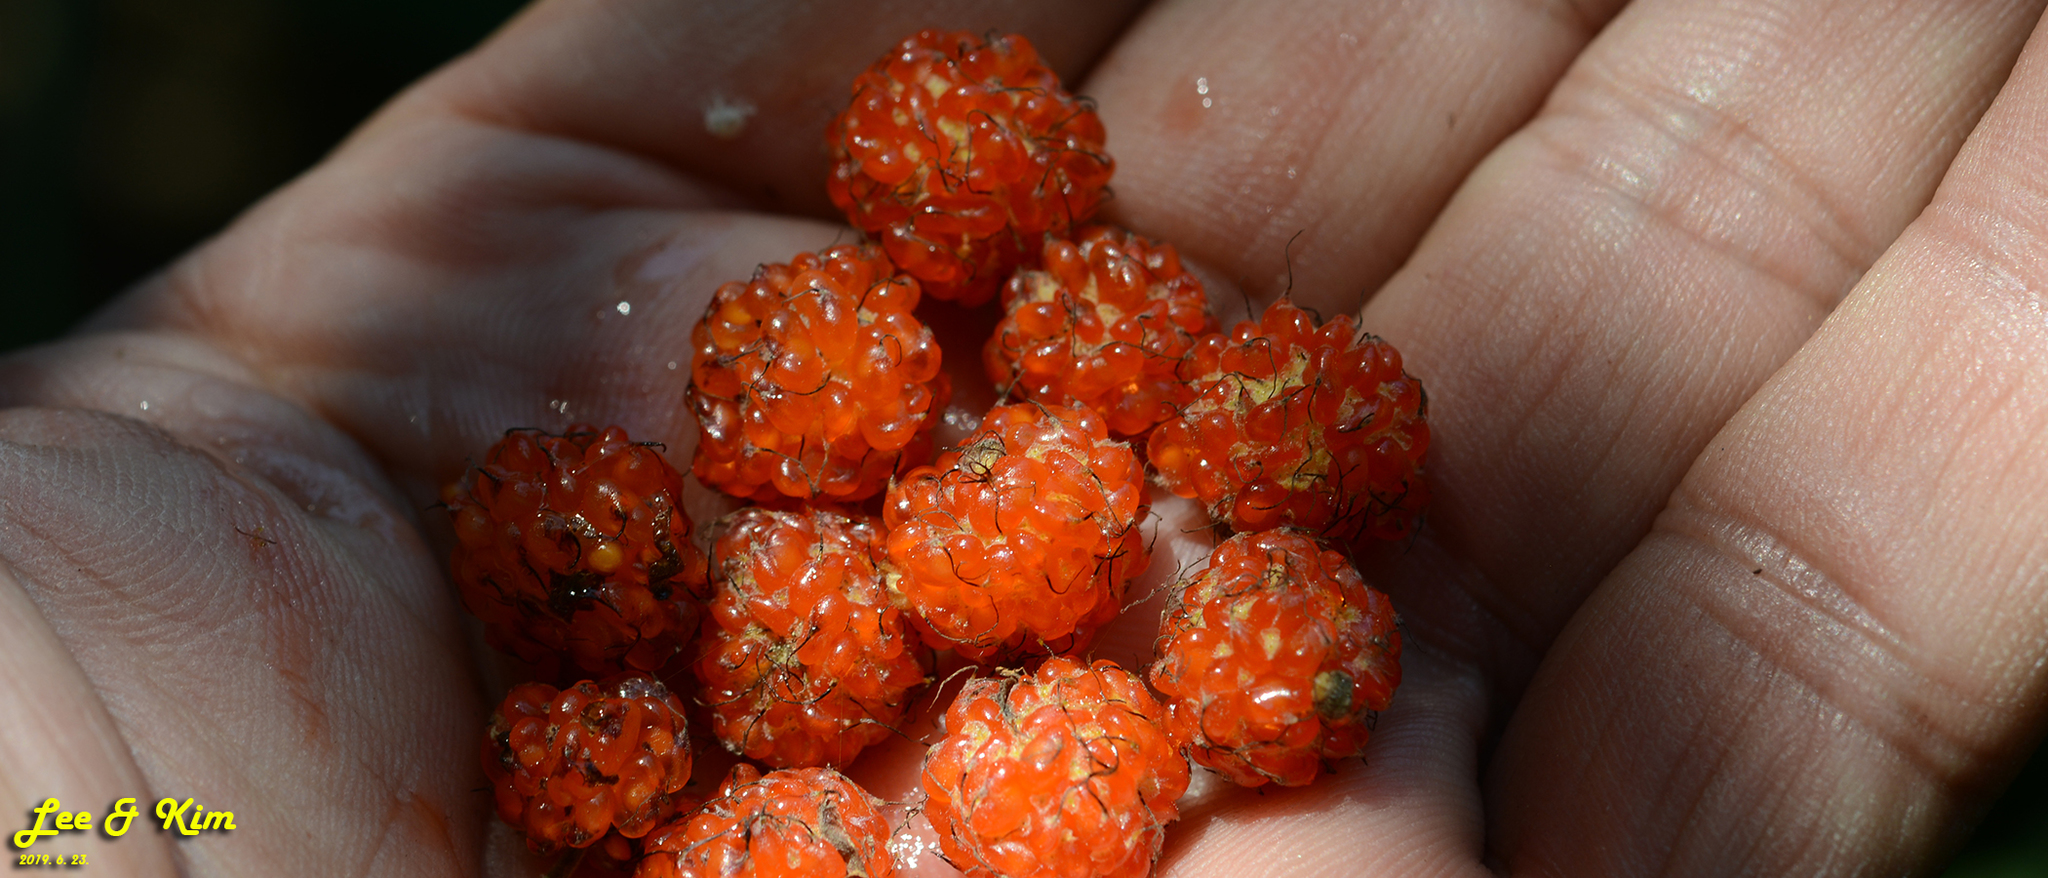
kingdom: Plantae
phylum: Tracheophyta
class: Magnoliopsida
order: Rosales
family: Moraceae
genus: Broussonetia
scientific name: Broussonetia papyrifera
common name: Paper mulberry
